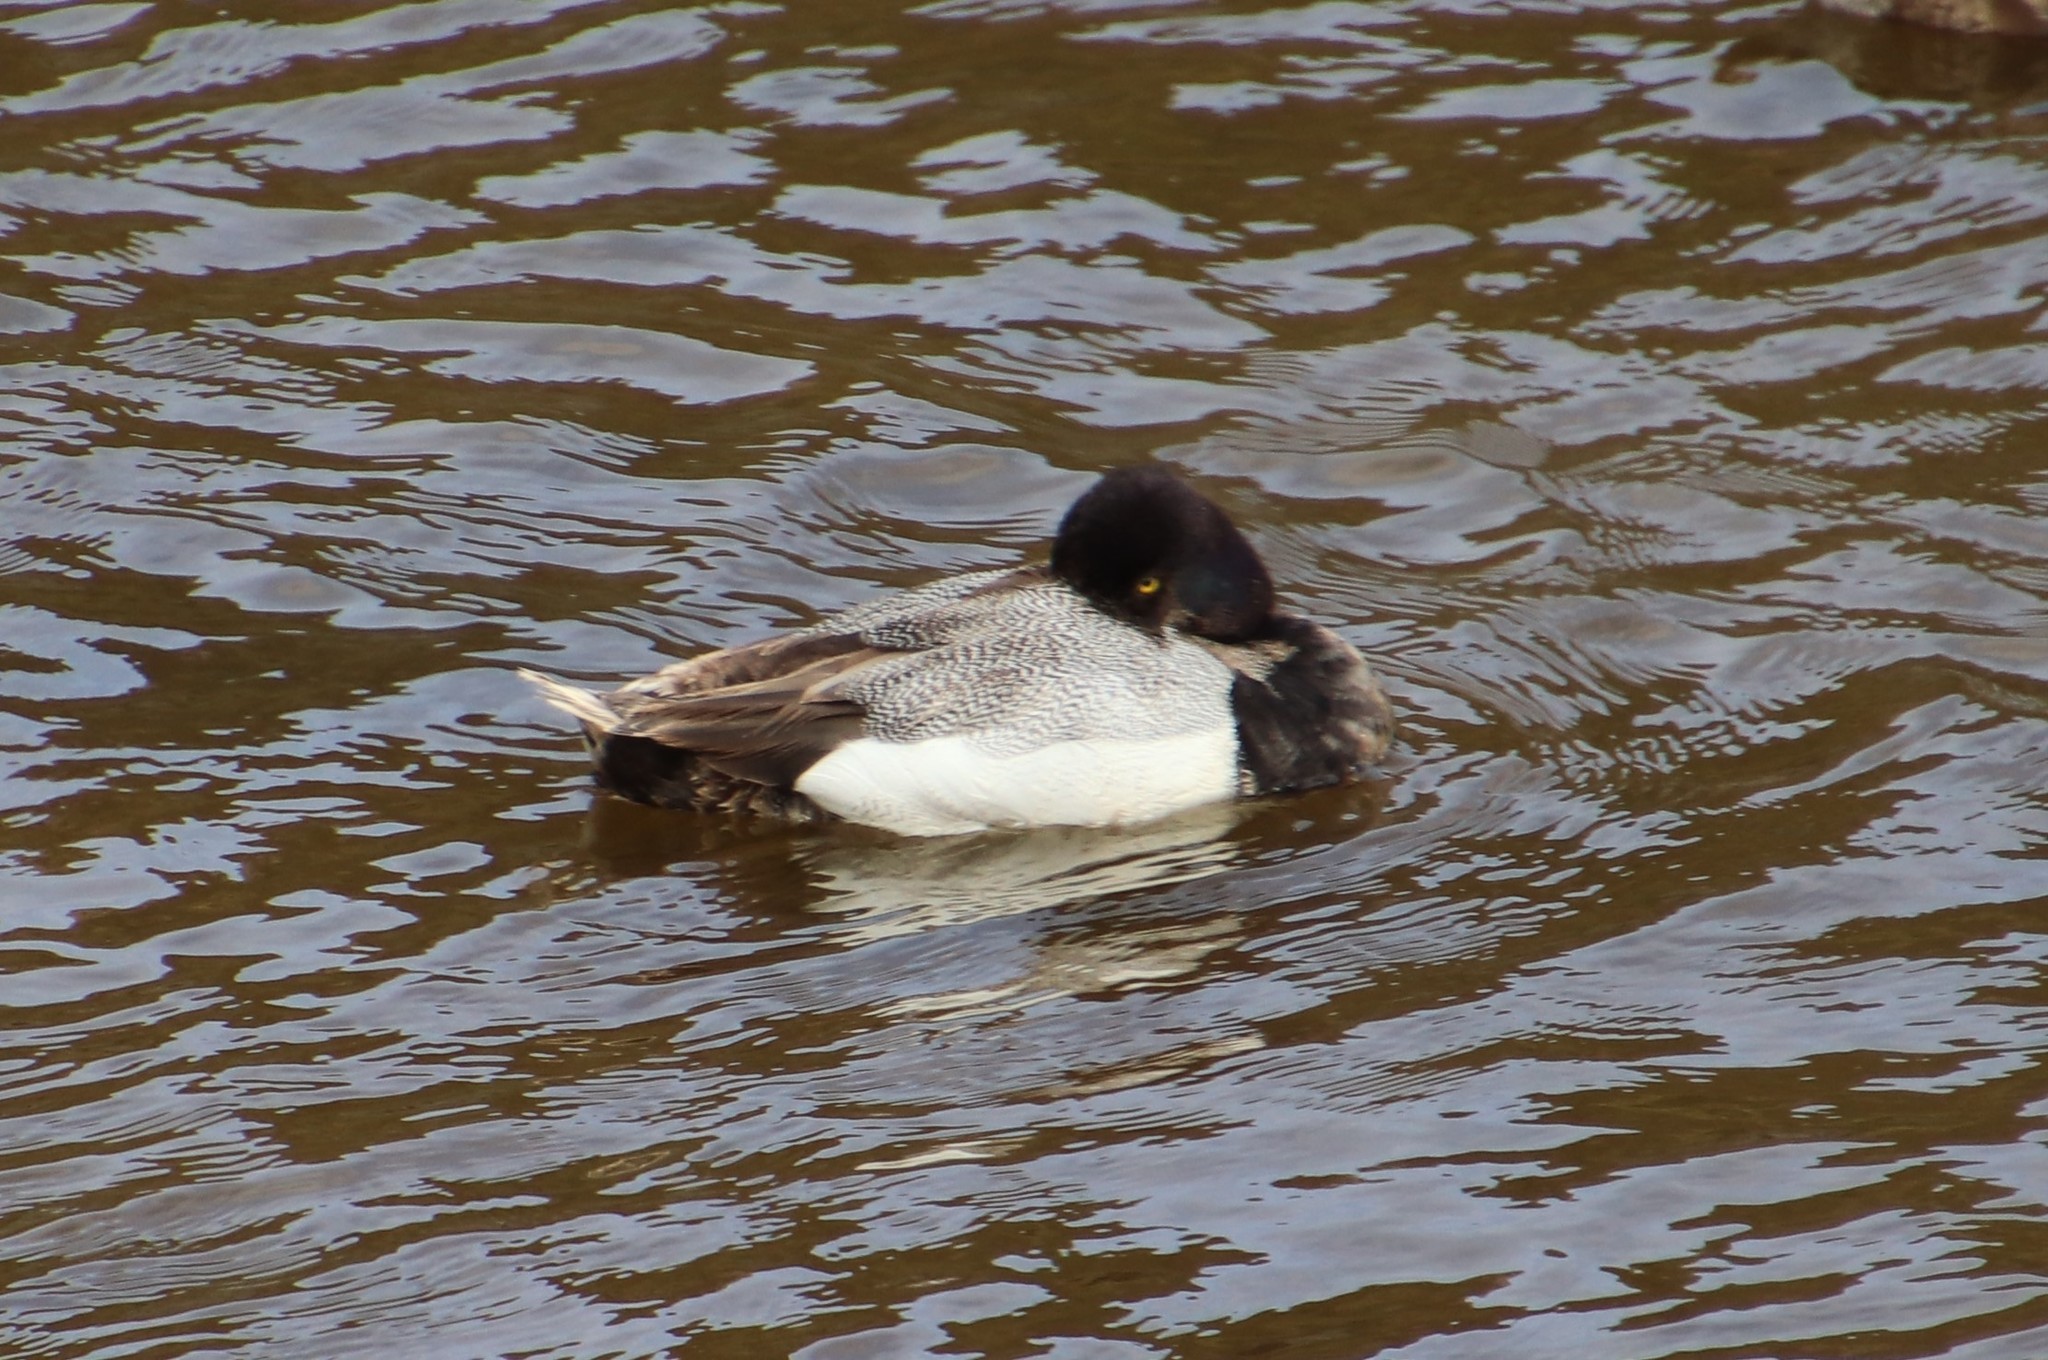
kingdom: Animalia
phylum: Chordata
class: Aves
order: Anseriformes
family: Anatidae
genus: Aythya
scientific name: Aythya affinis
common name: Lesser scaup
